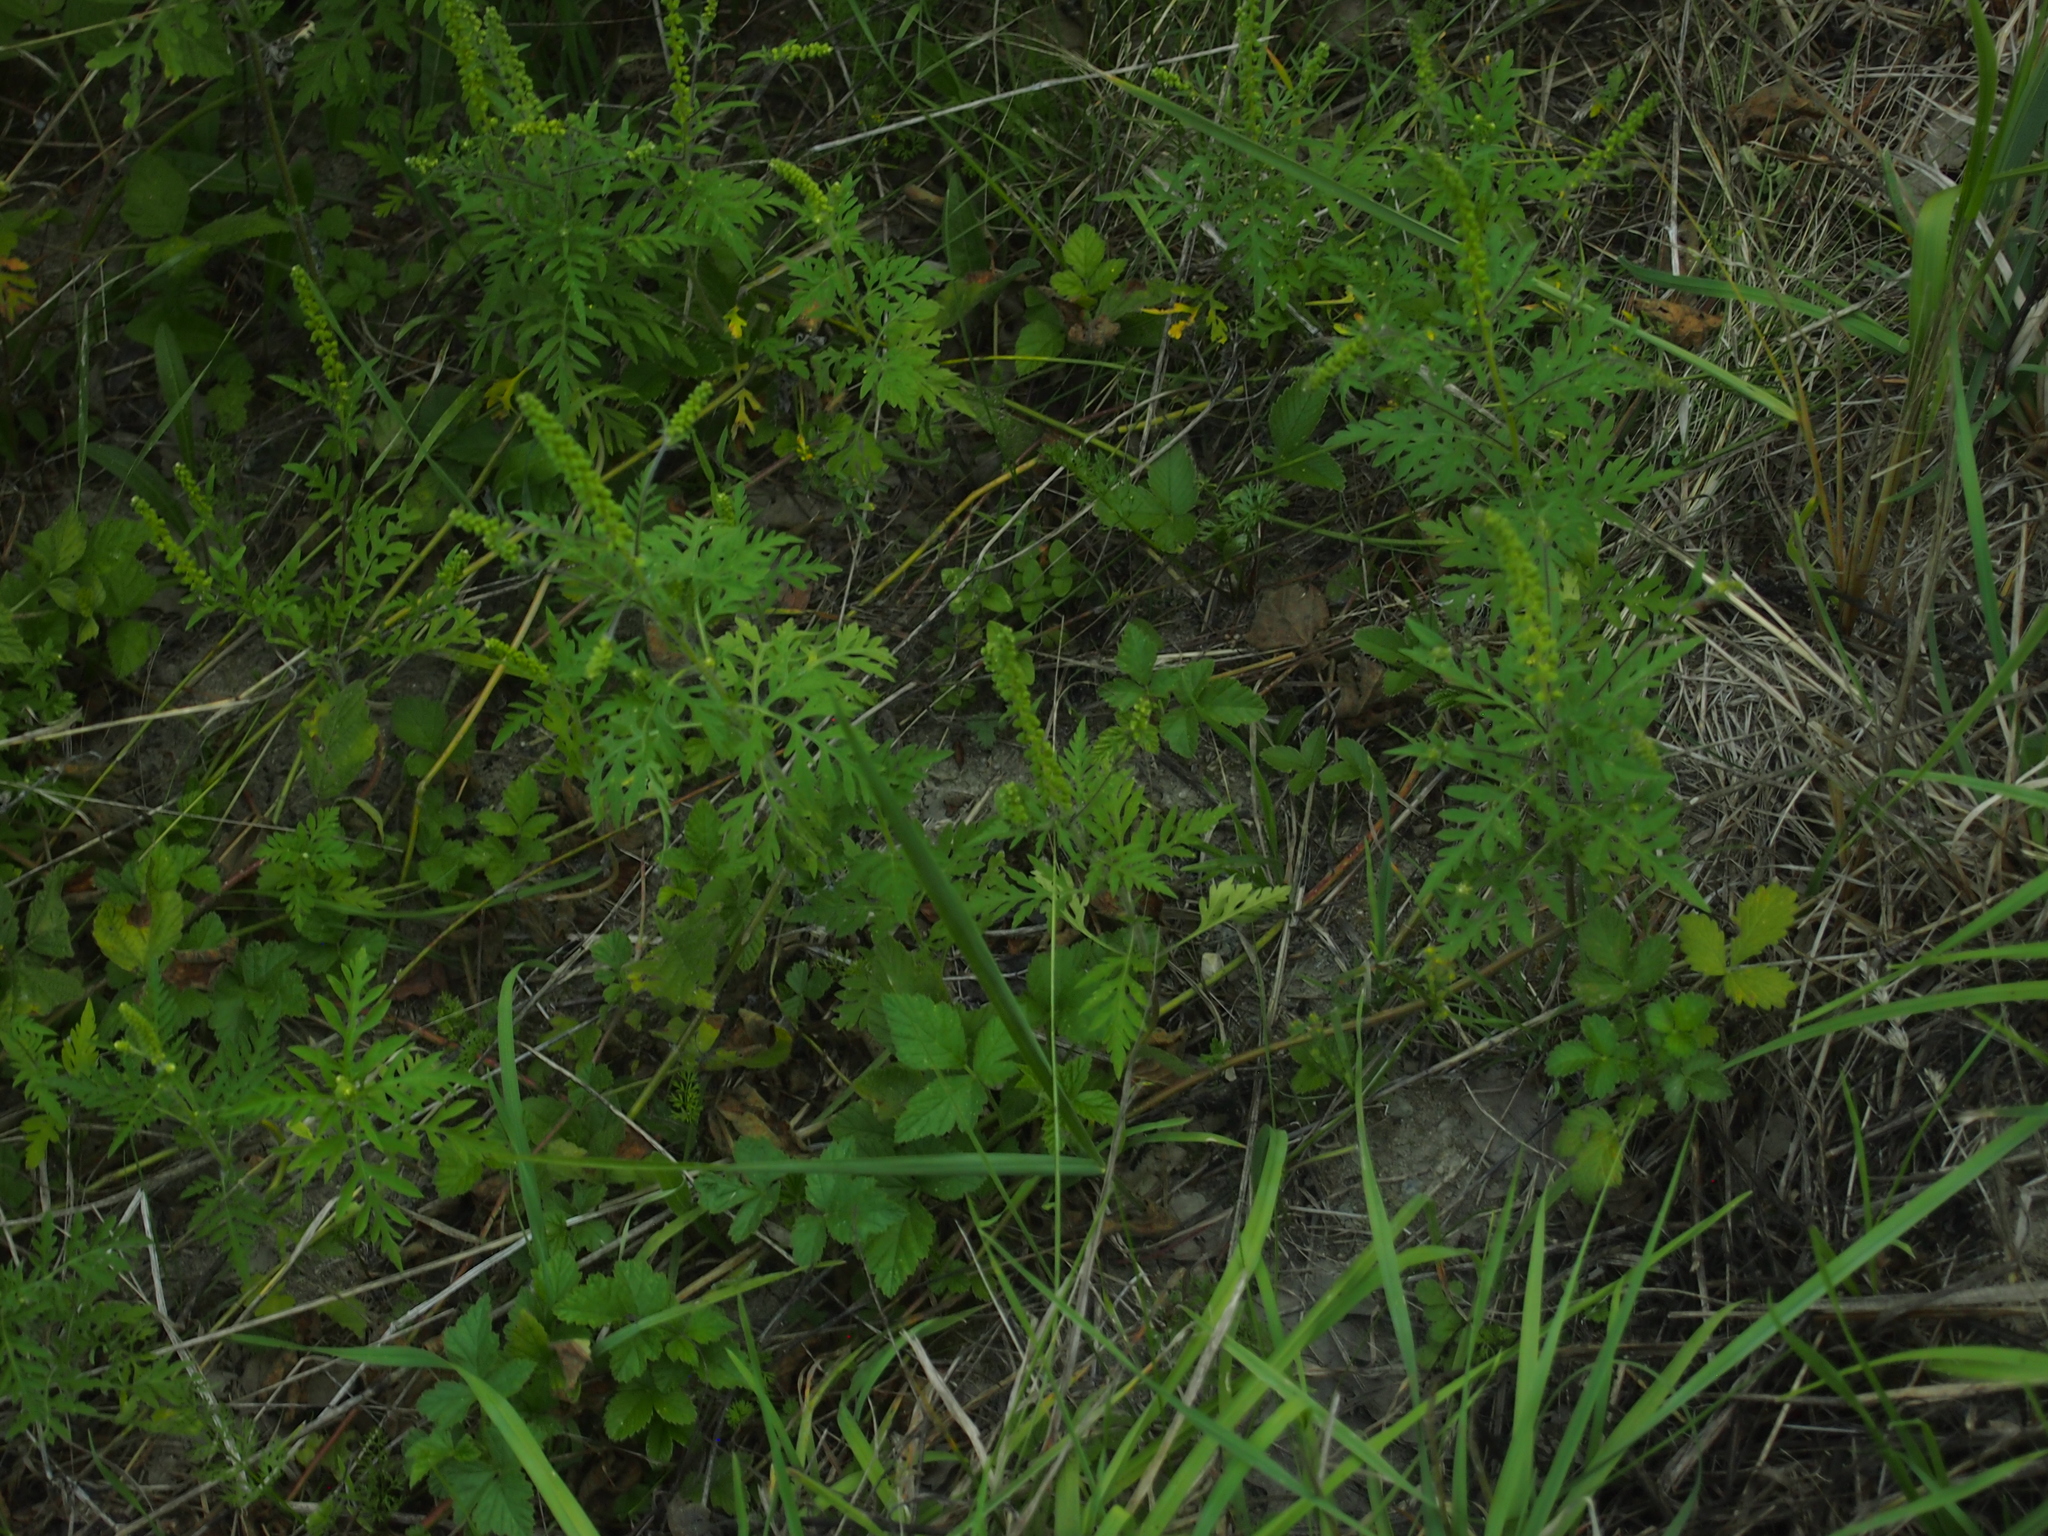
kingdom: Plantae
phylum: Tracheophyta
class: Magnoliopsida
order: Asterales
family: Asteraceae
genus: Ambrosia
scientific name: Ambrosia artemisiifolia
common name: Annual ragweed
